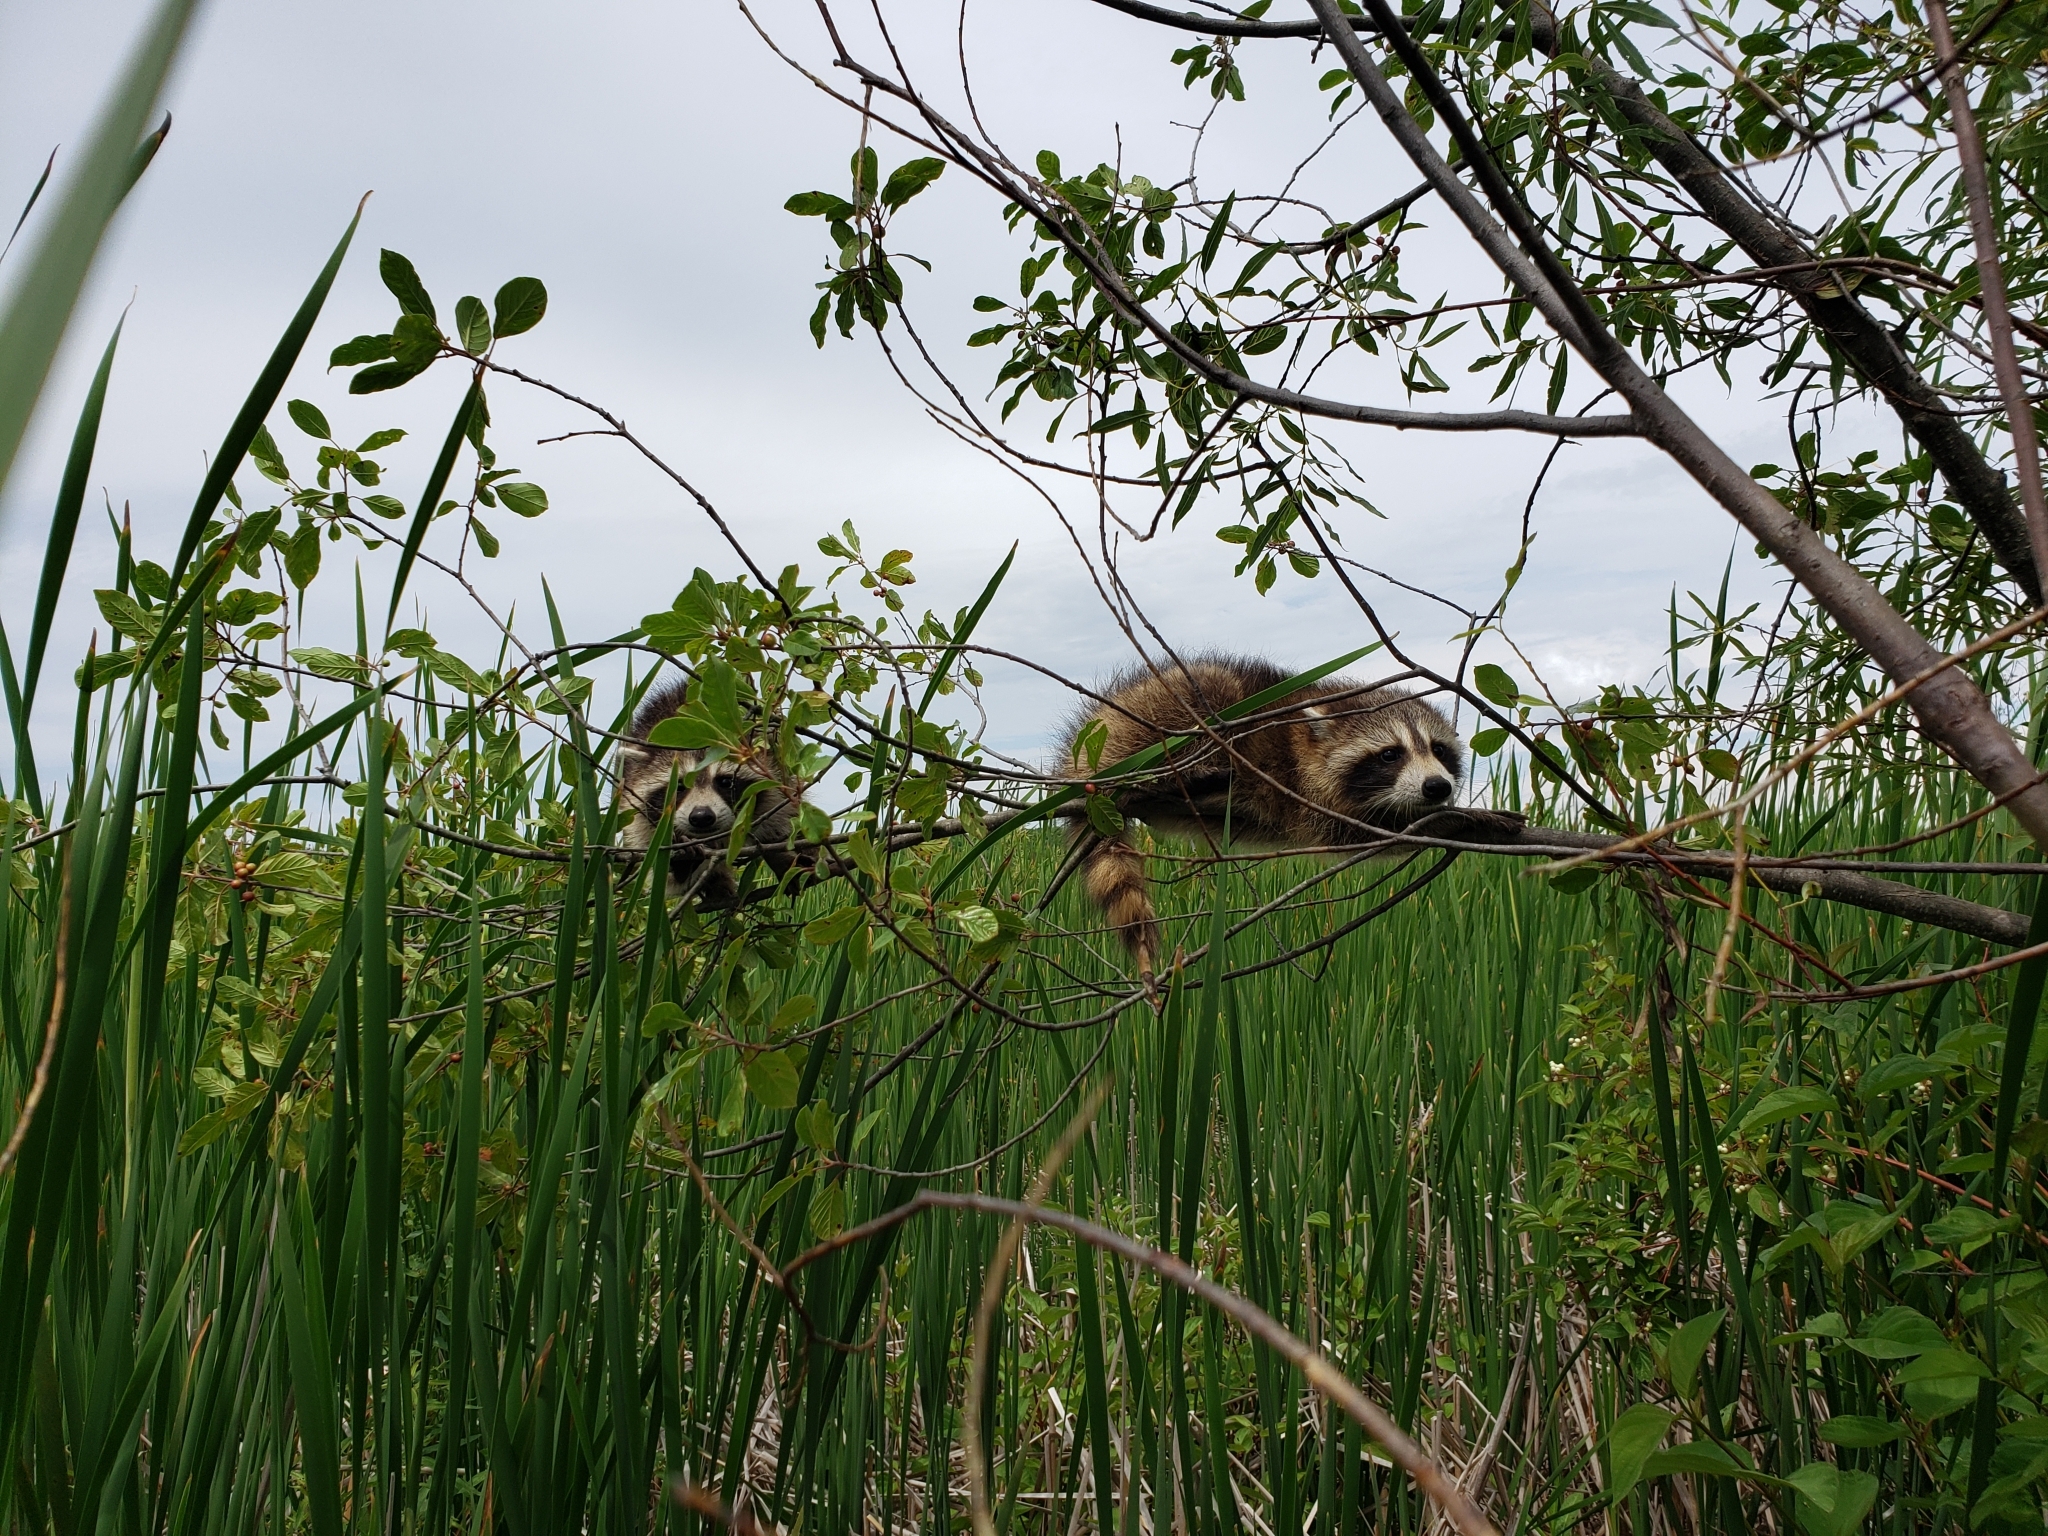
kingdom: Animalia
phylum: Chordata
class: Mammalia
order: Carnivora
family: Procyonidae
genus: Procyon
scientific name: Procyon lotor
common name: Raccoon
